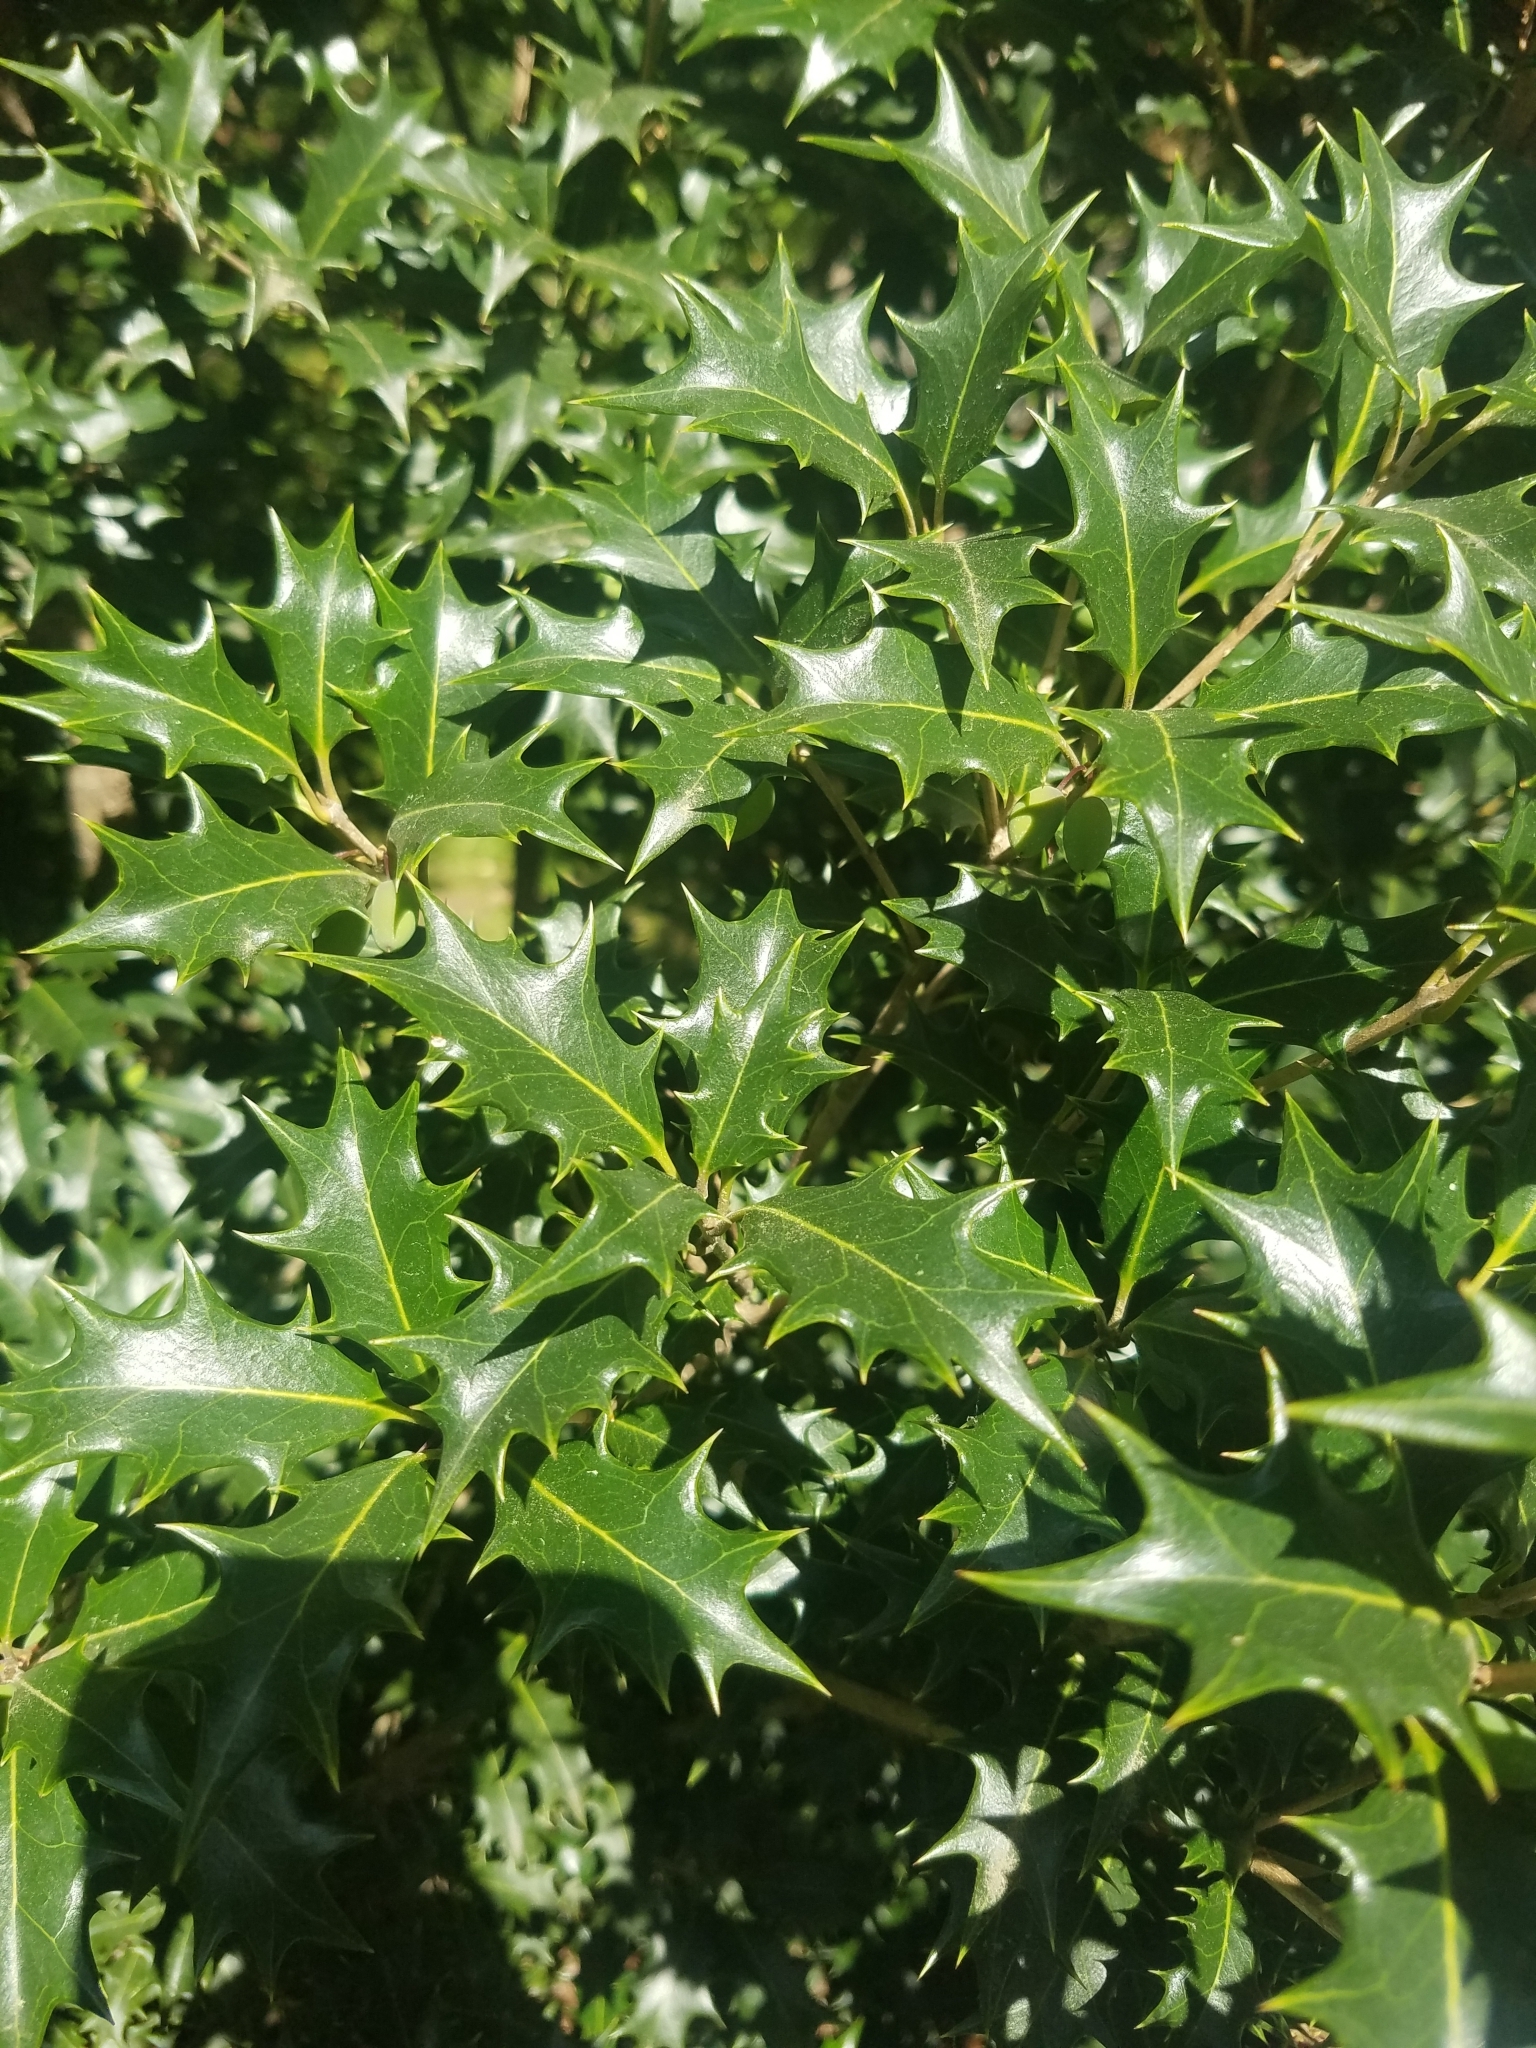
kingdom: Plantae
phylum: Tracheophyta
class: Magnoliopsida
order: Lamiales
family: Oleaceae
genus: Osmanthus
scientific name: Osmanthus heterophyllus
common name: Holly osmanthus
